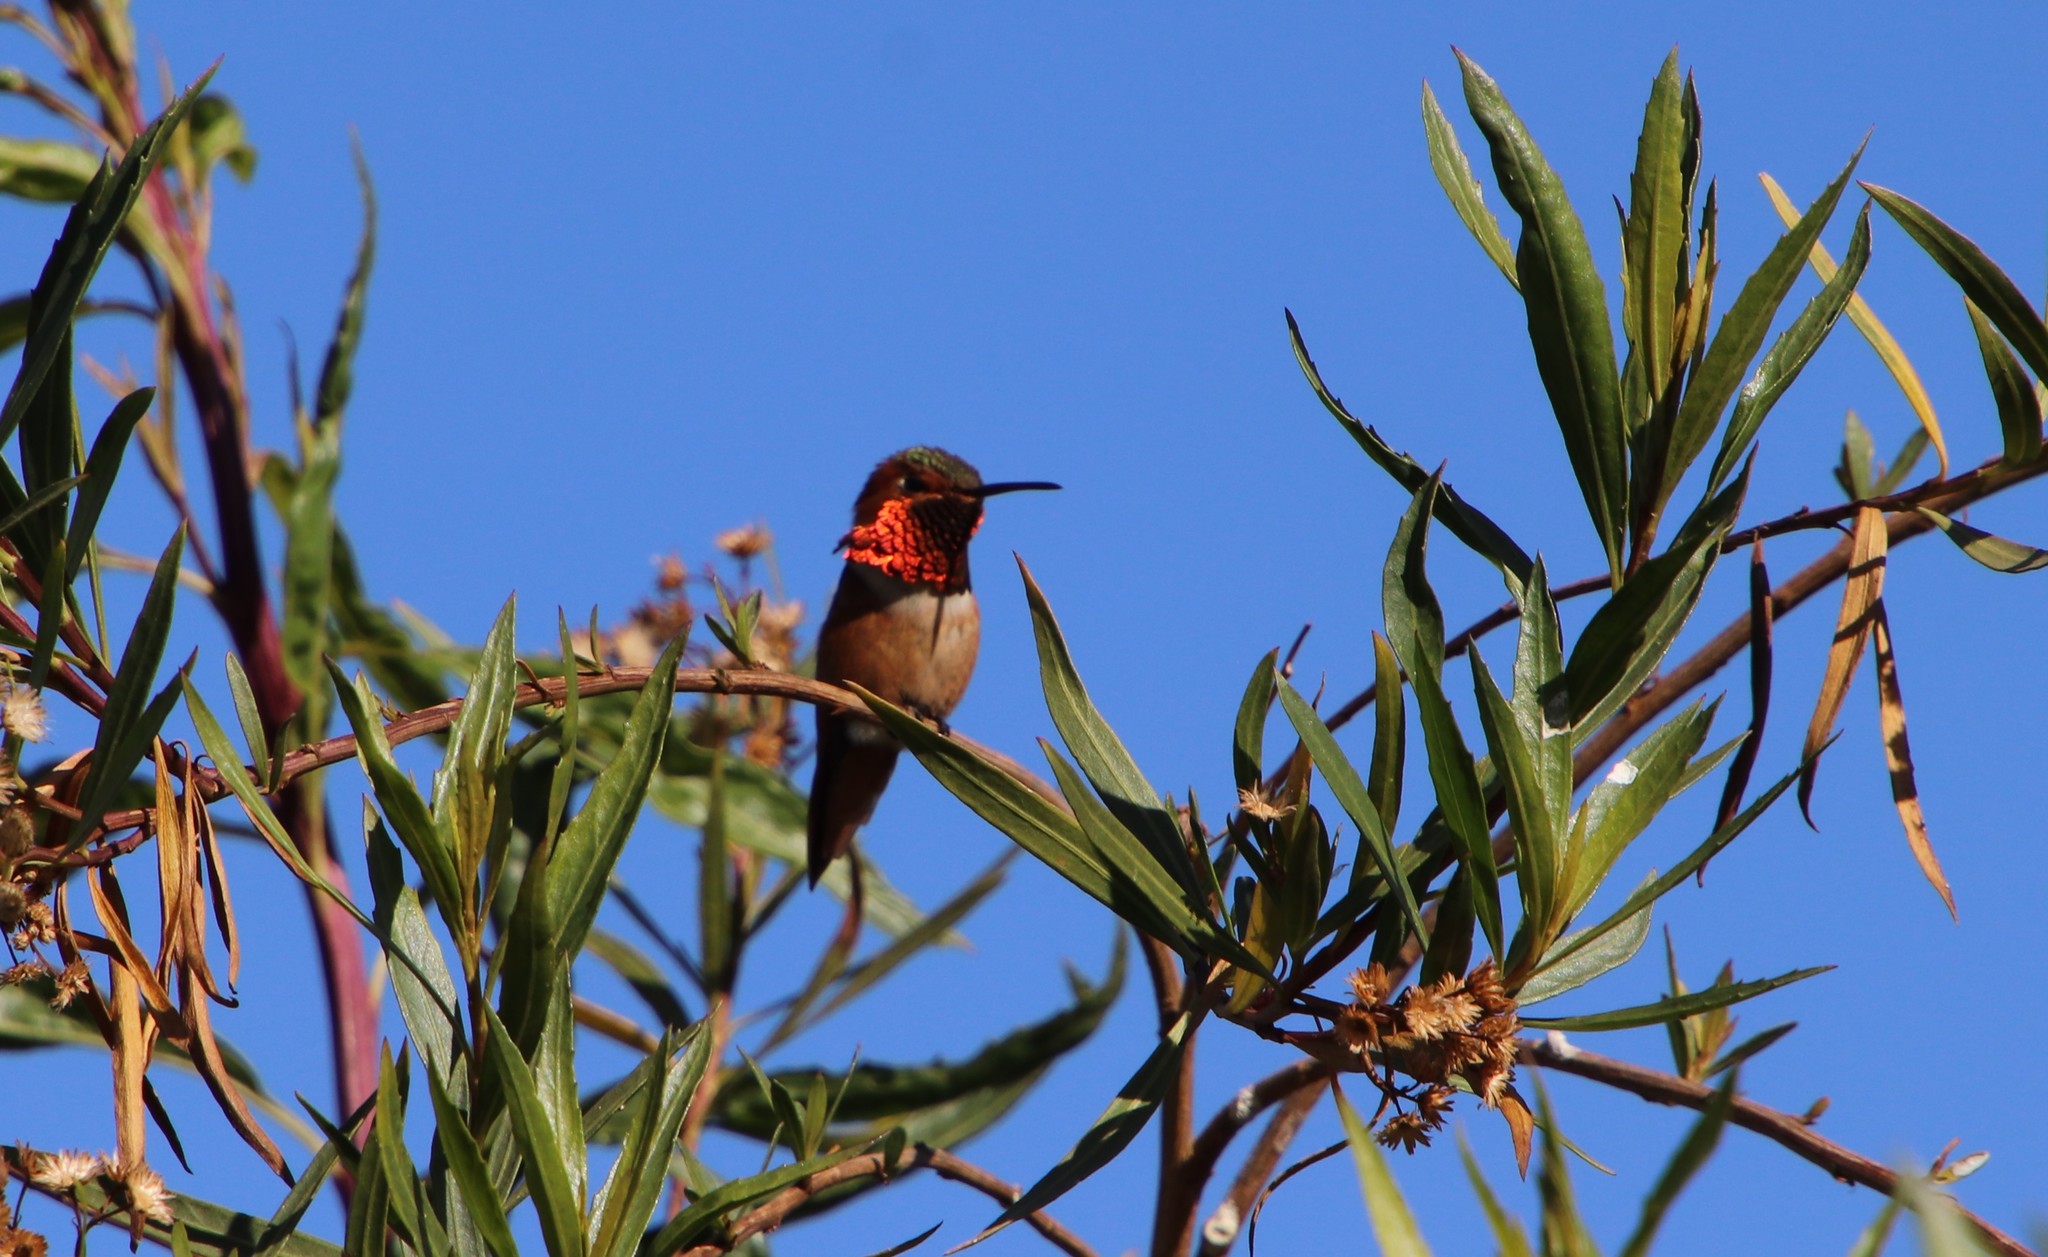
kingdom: Animalia
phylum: Chordata
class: Aves
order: Apodiformes
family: Trochilidae
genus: Selasphorus
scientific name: Selasphorus
